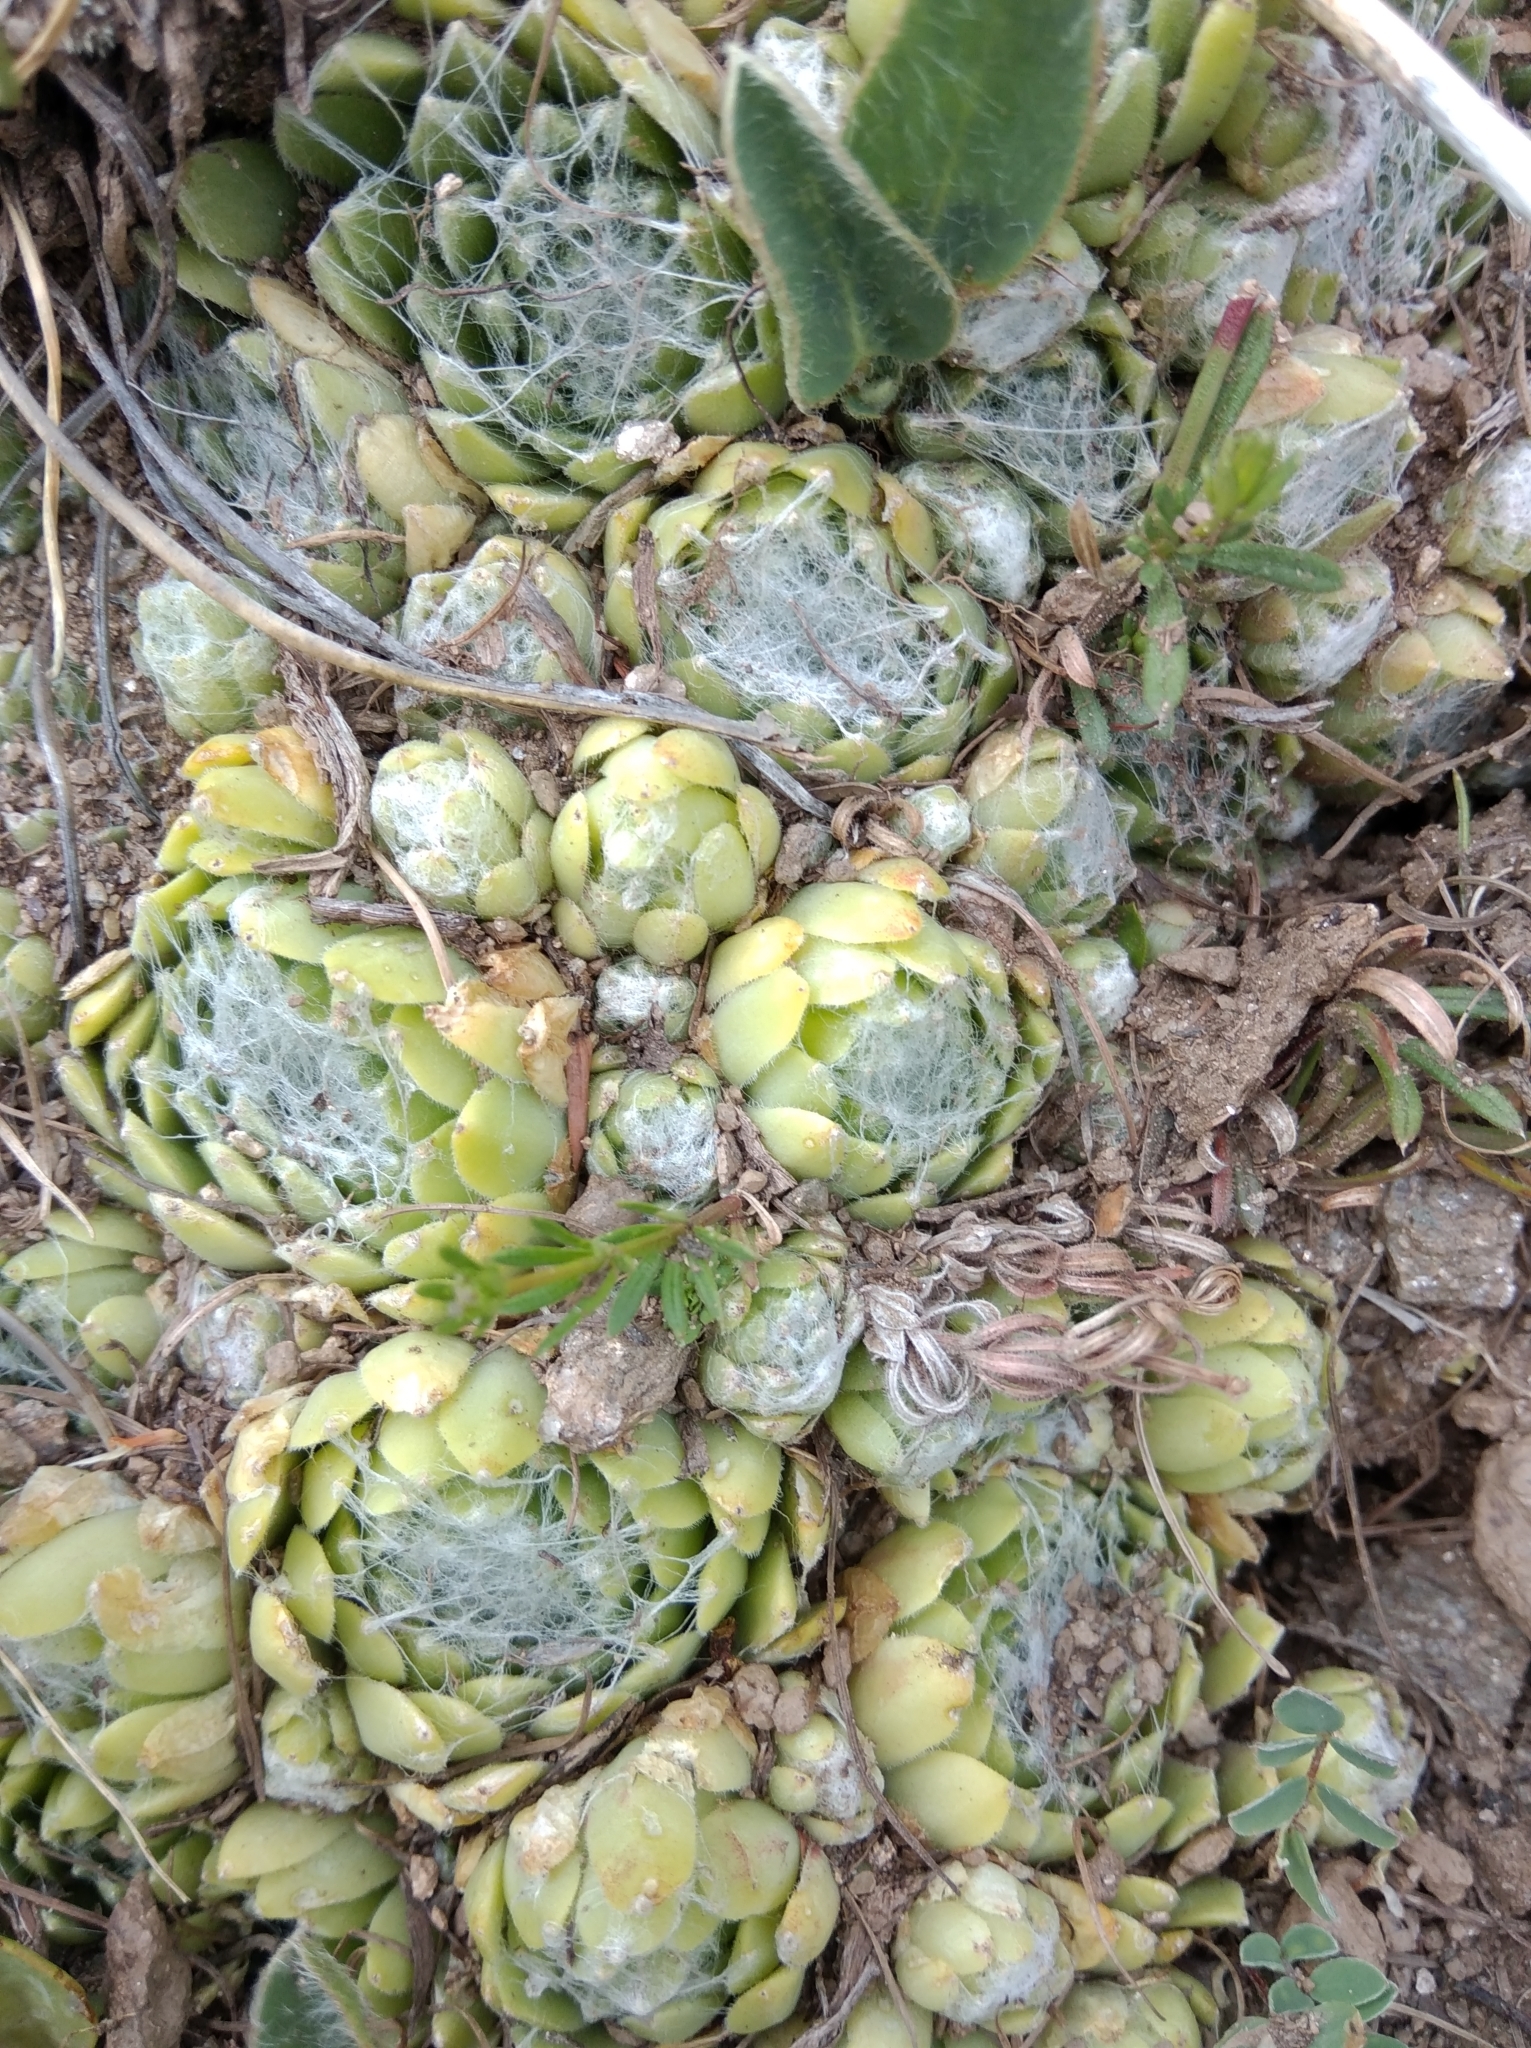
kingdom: Plantae
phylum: Tracheophyta
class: Magnoliopsida
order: Saxifragales
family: Crassulaceae
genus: Sempervivum
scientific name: Sempervivum arachnoideum
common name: Cobweb house-leek
